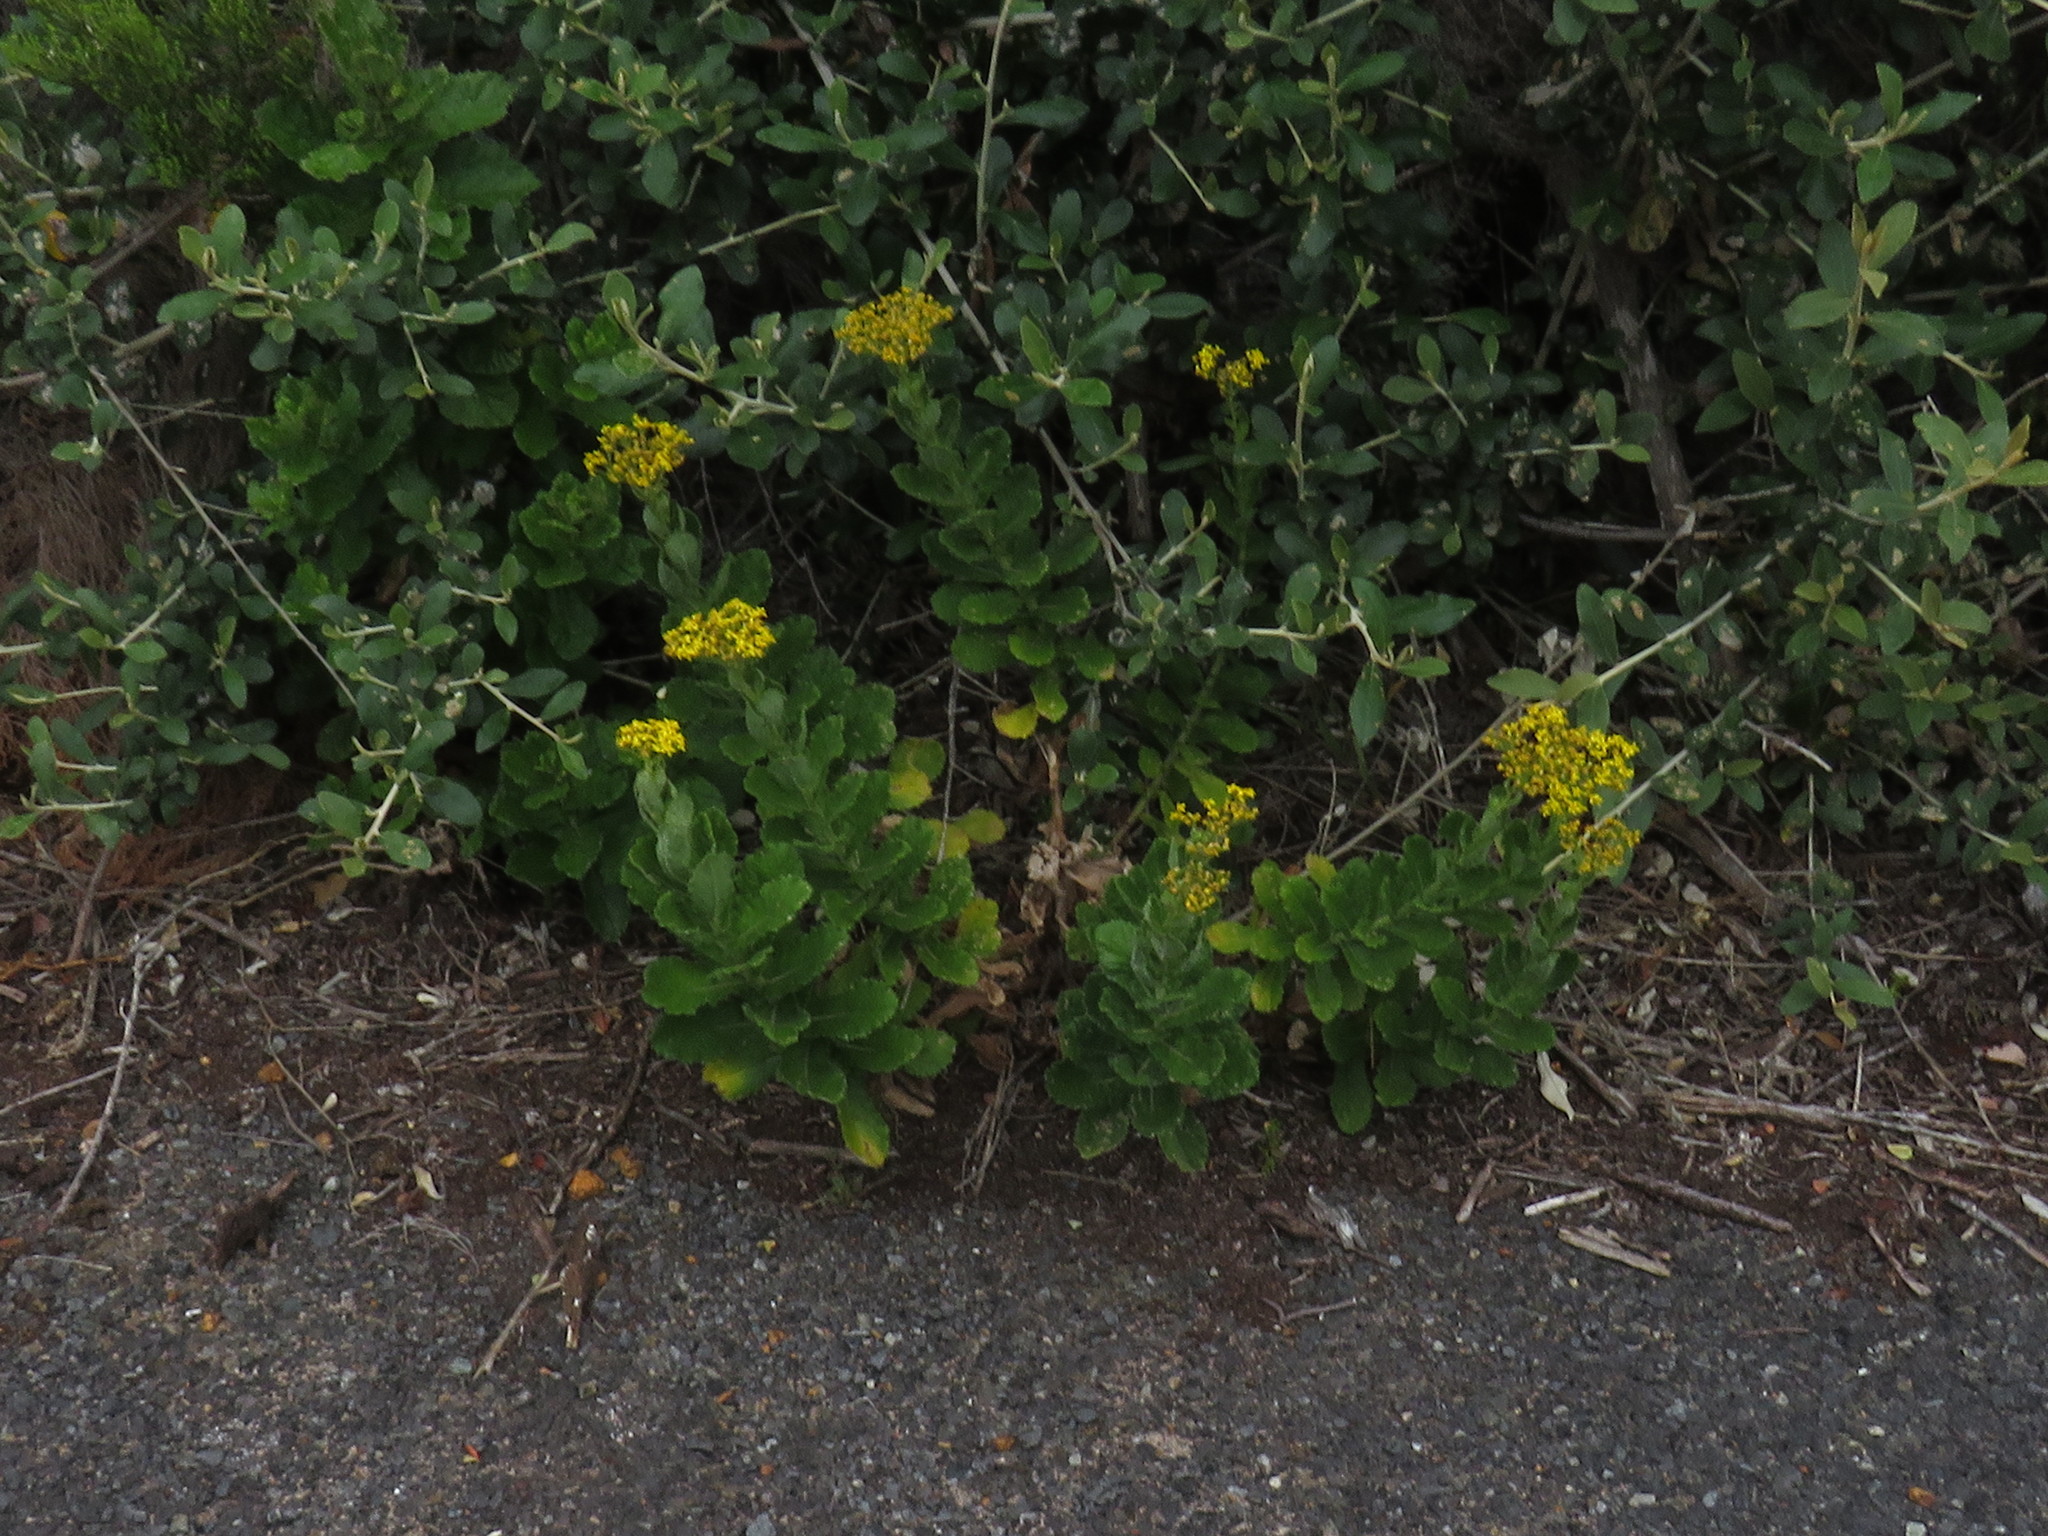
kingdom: Plantae
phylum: Tracheophyta
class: Magnoliopsida
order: Asterales
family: Asteraceae
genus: Senecio
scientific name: Senecio rigidus
